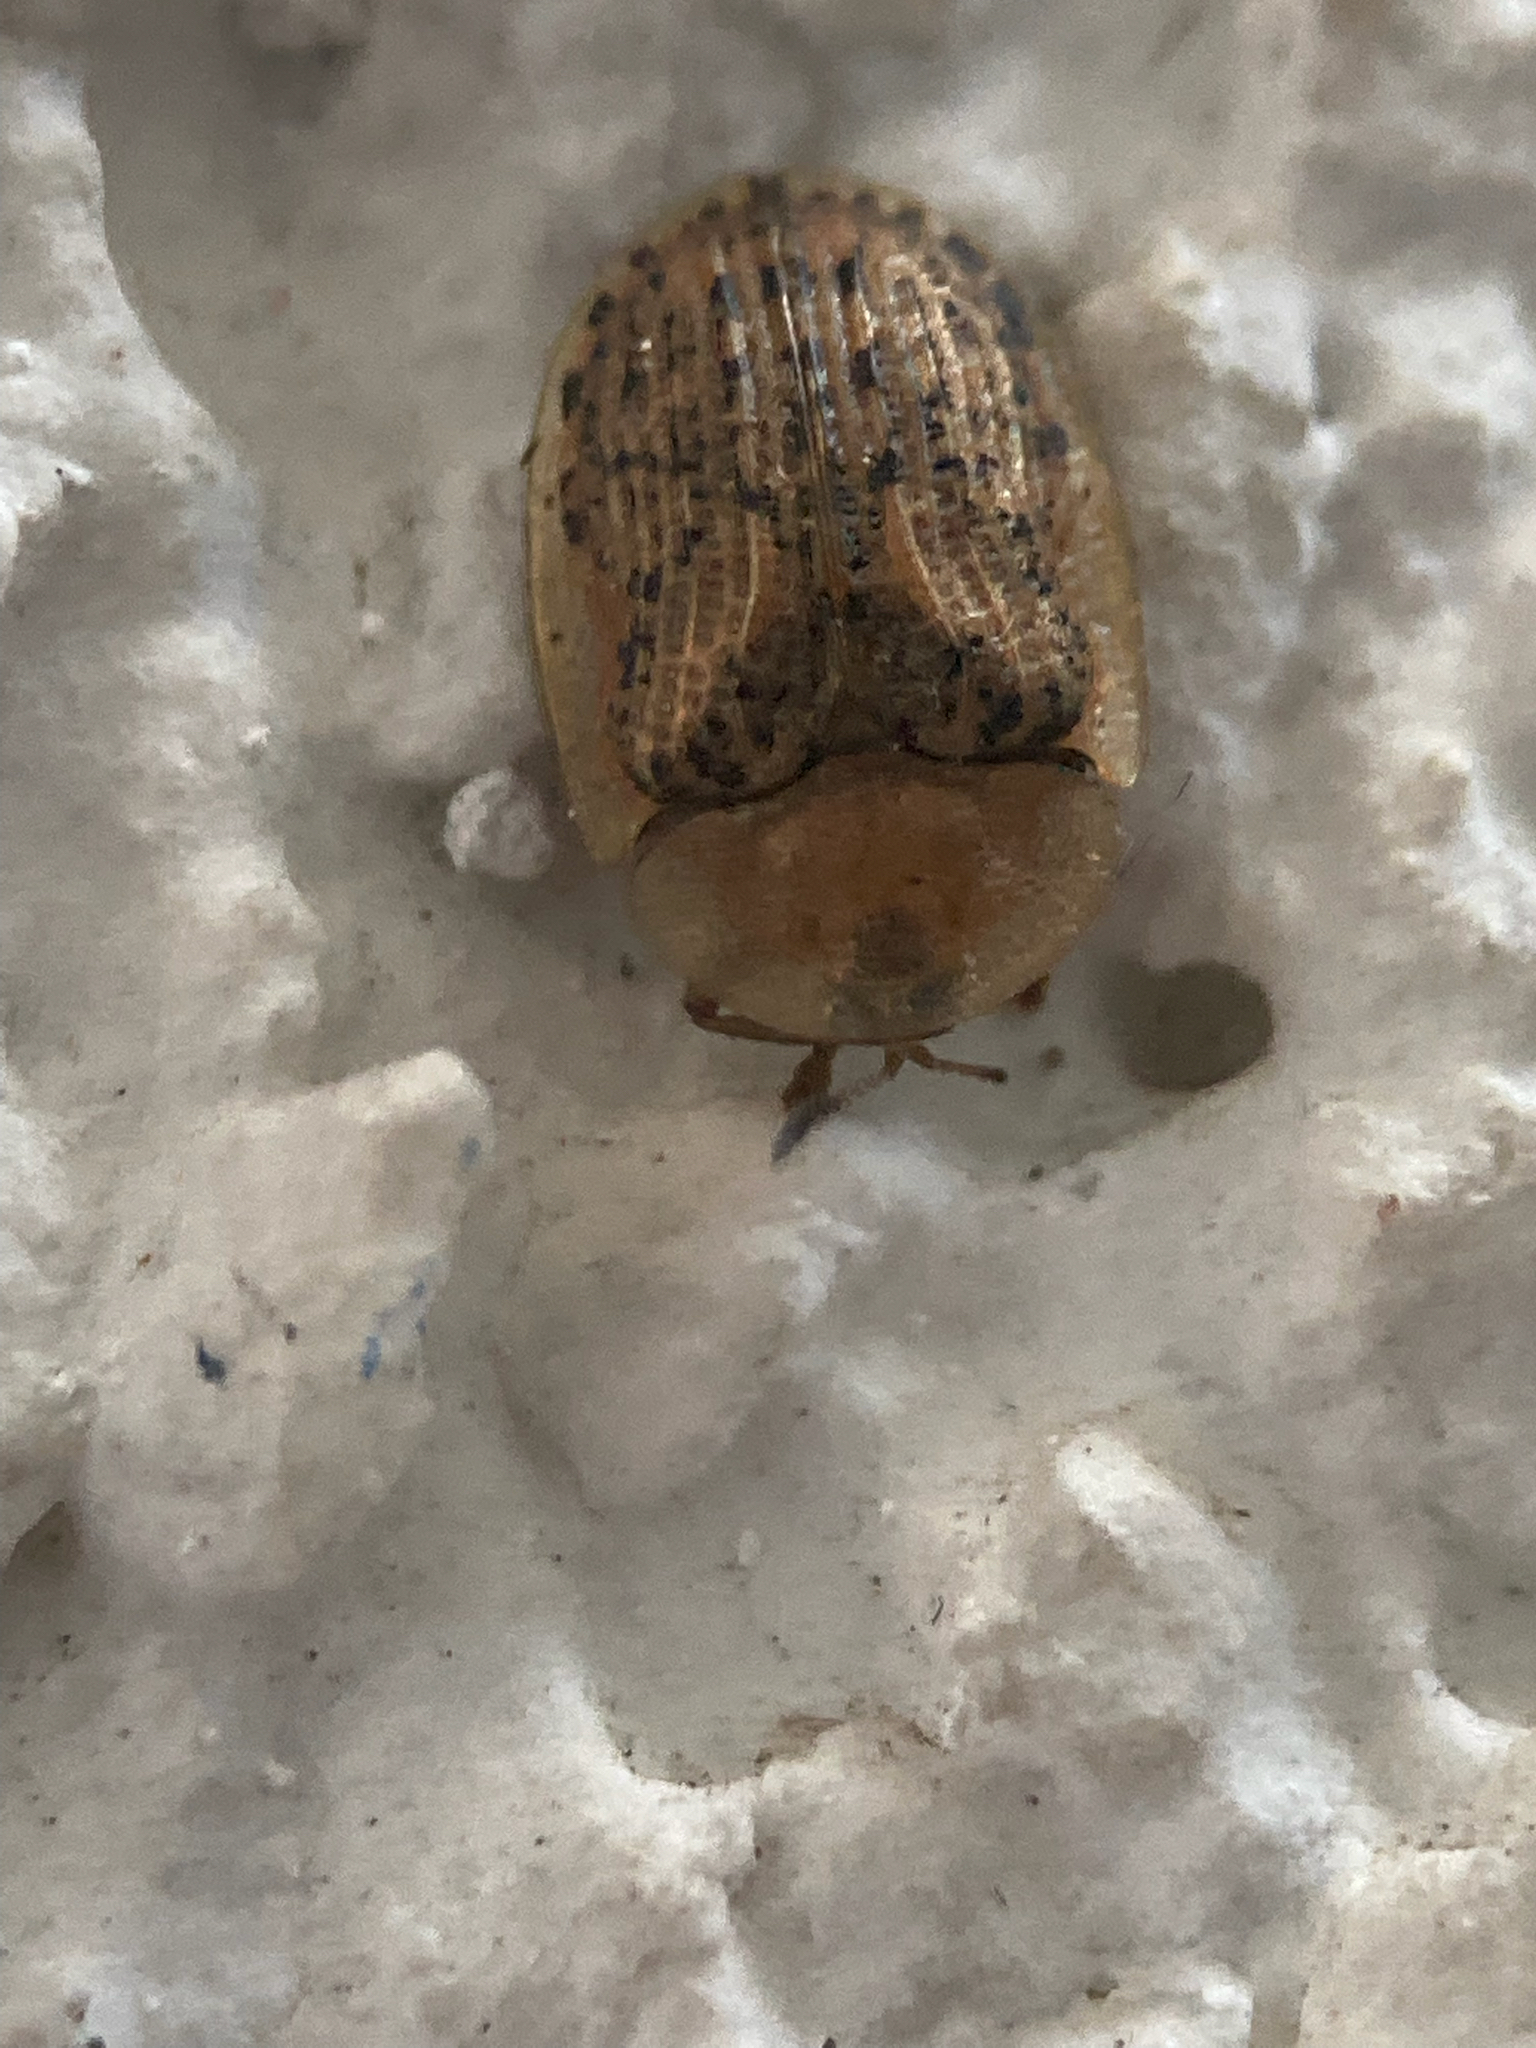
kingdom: Animalia
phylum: Arthropoda
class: Insecta
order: Coleoptera
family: Chrysomelidae
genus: Cassida
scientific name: Cassida nebulosa
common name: Beet tortoise beetle
